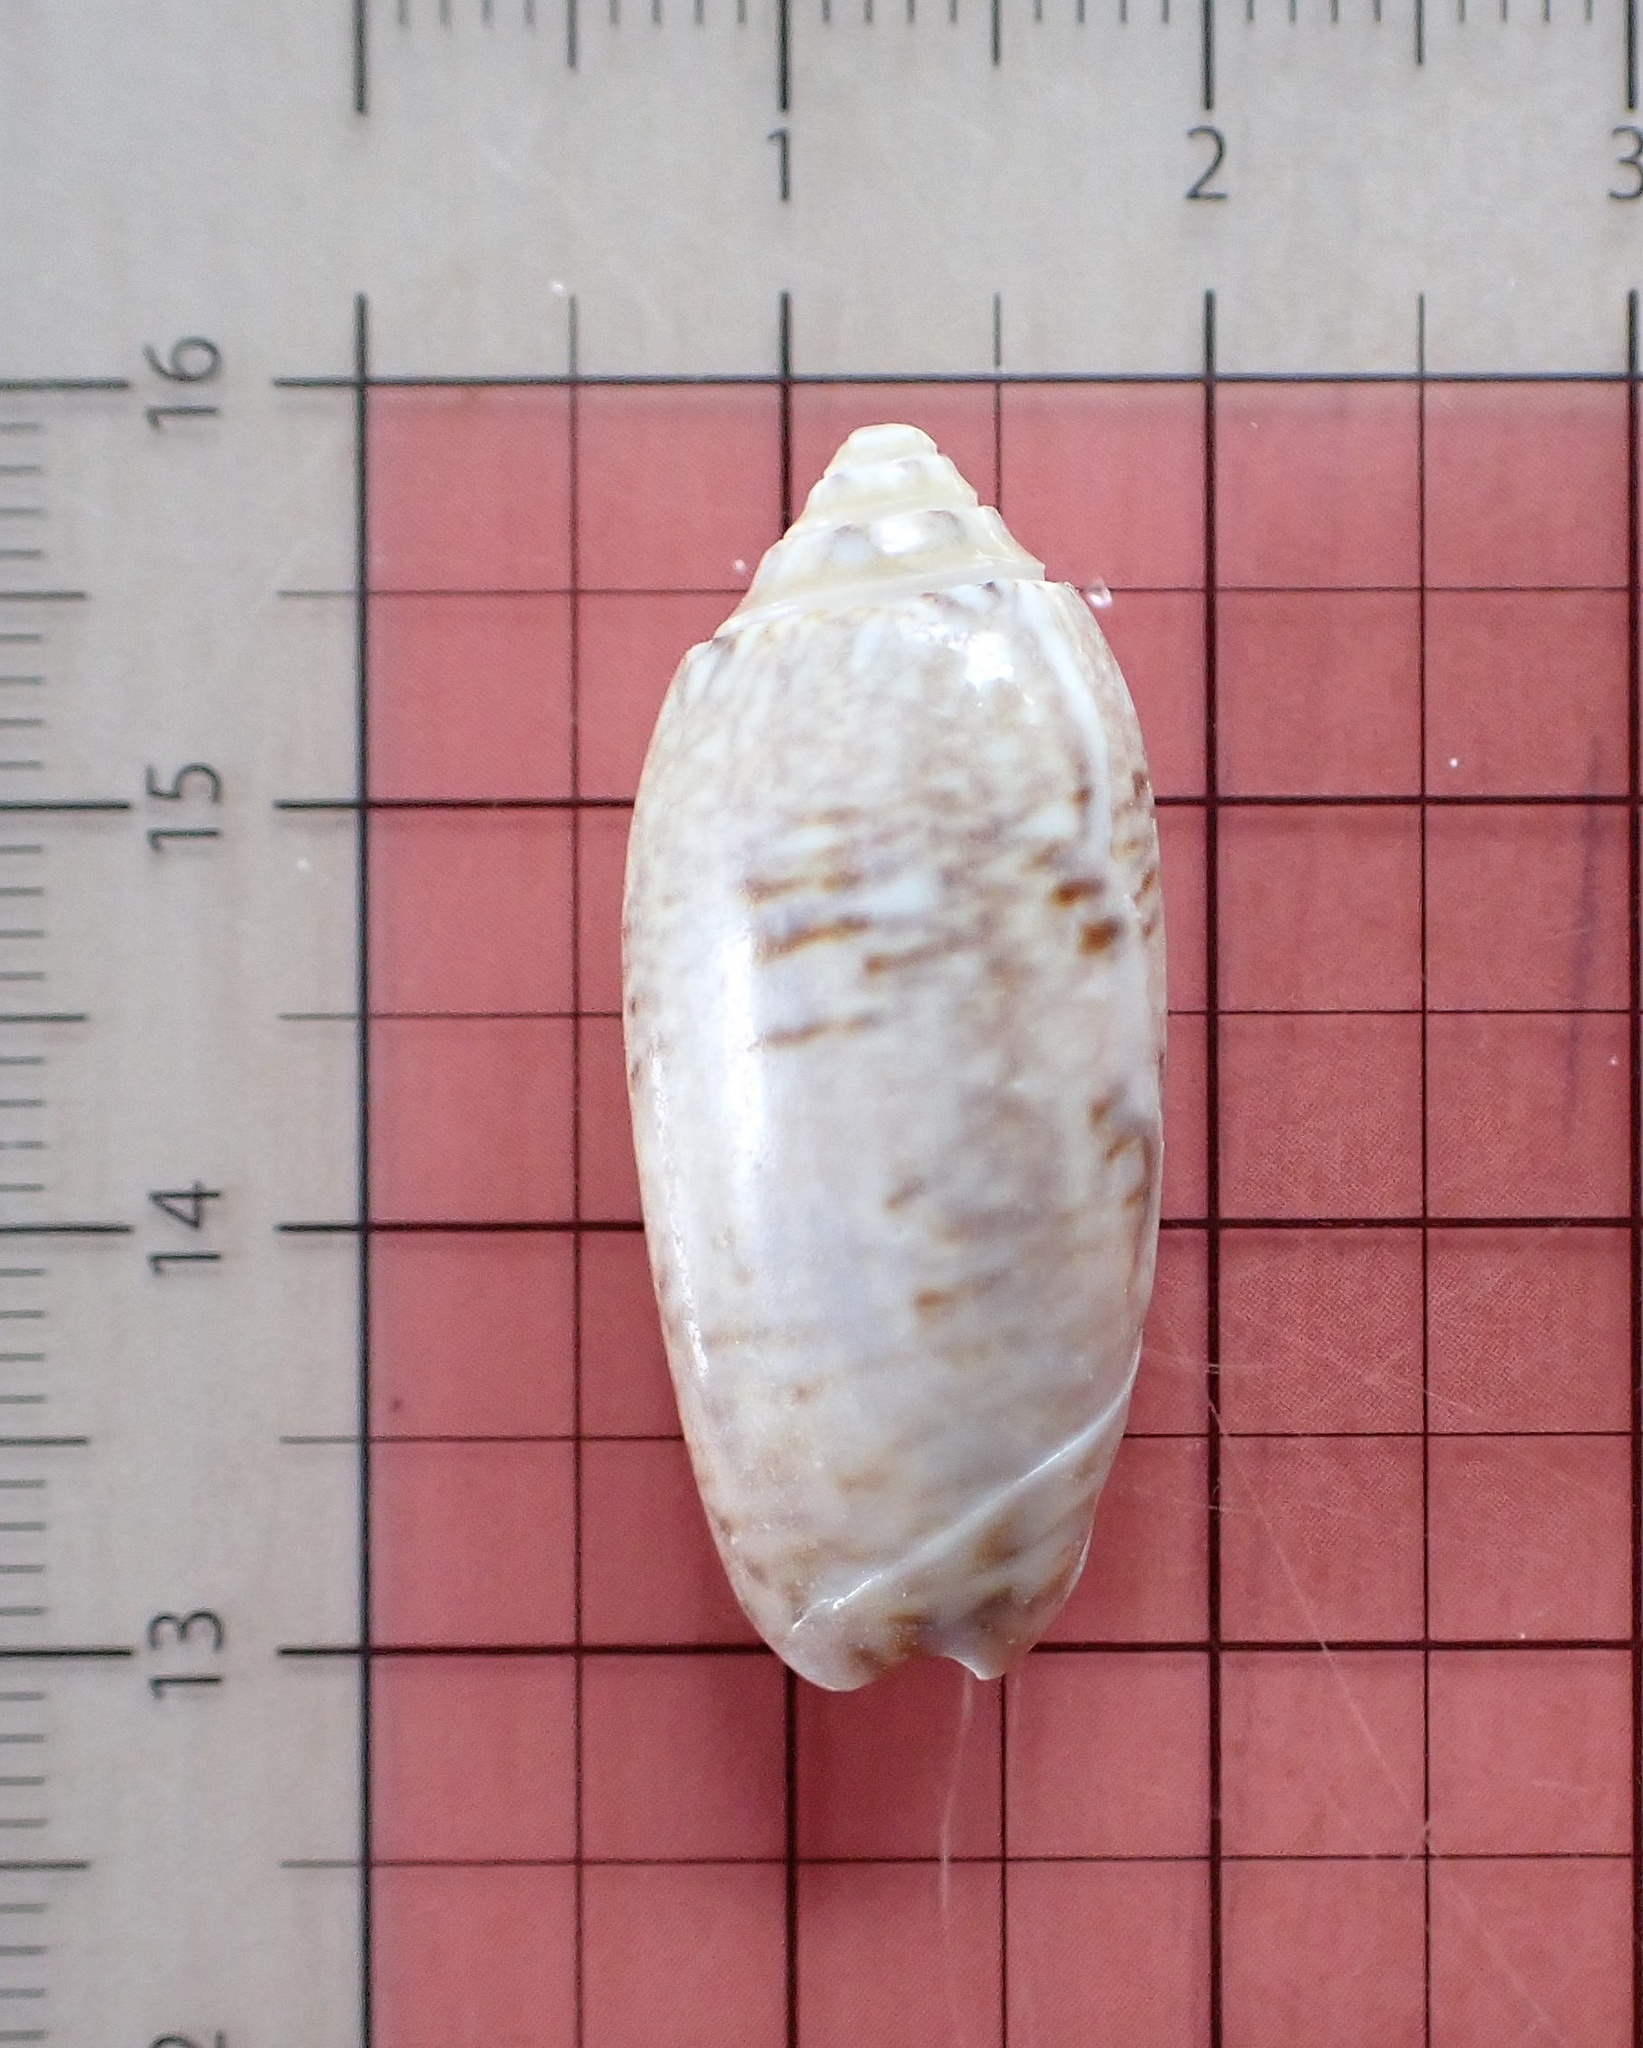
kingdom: Animalia
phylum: Mollusca
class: Gastropoda
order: Neogastropoda
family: Olividae
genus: Oliva
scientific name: Oliva sayana
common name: Lettered olive
